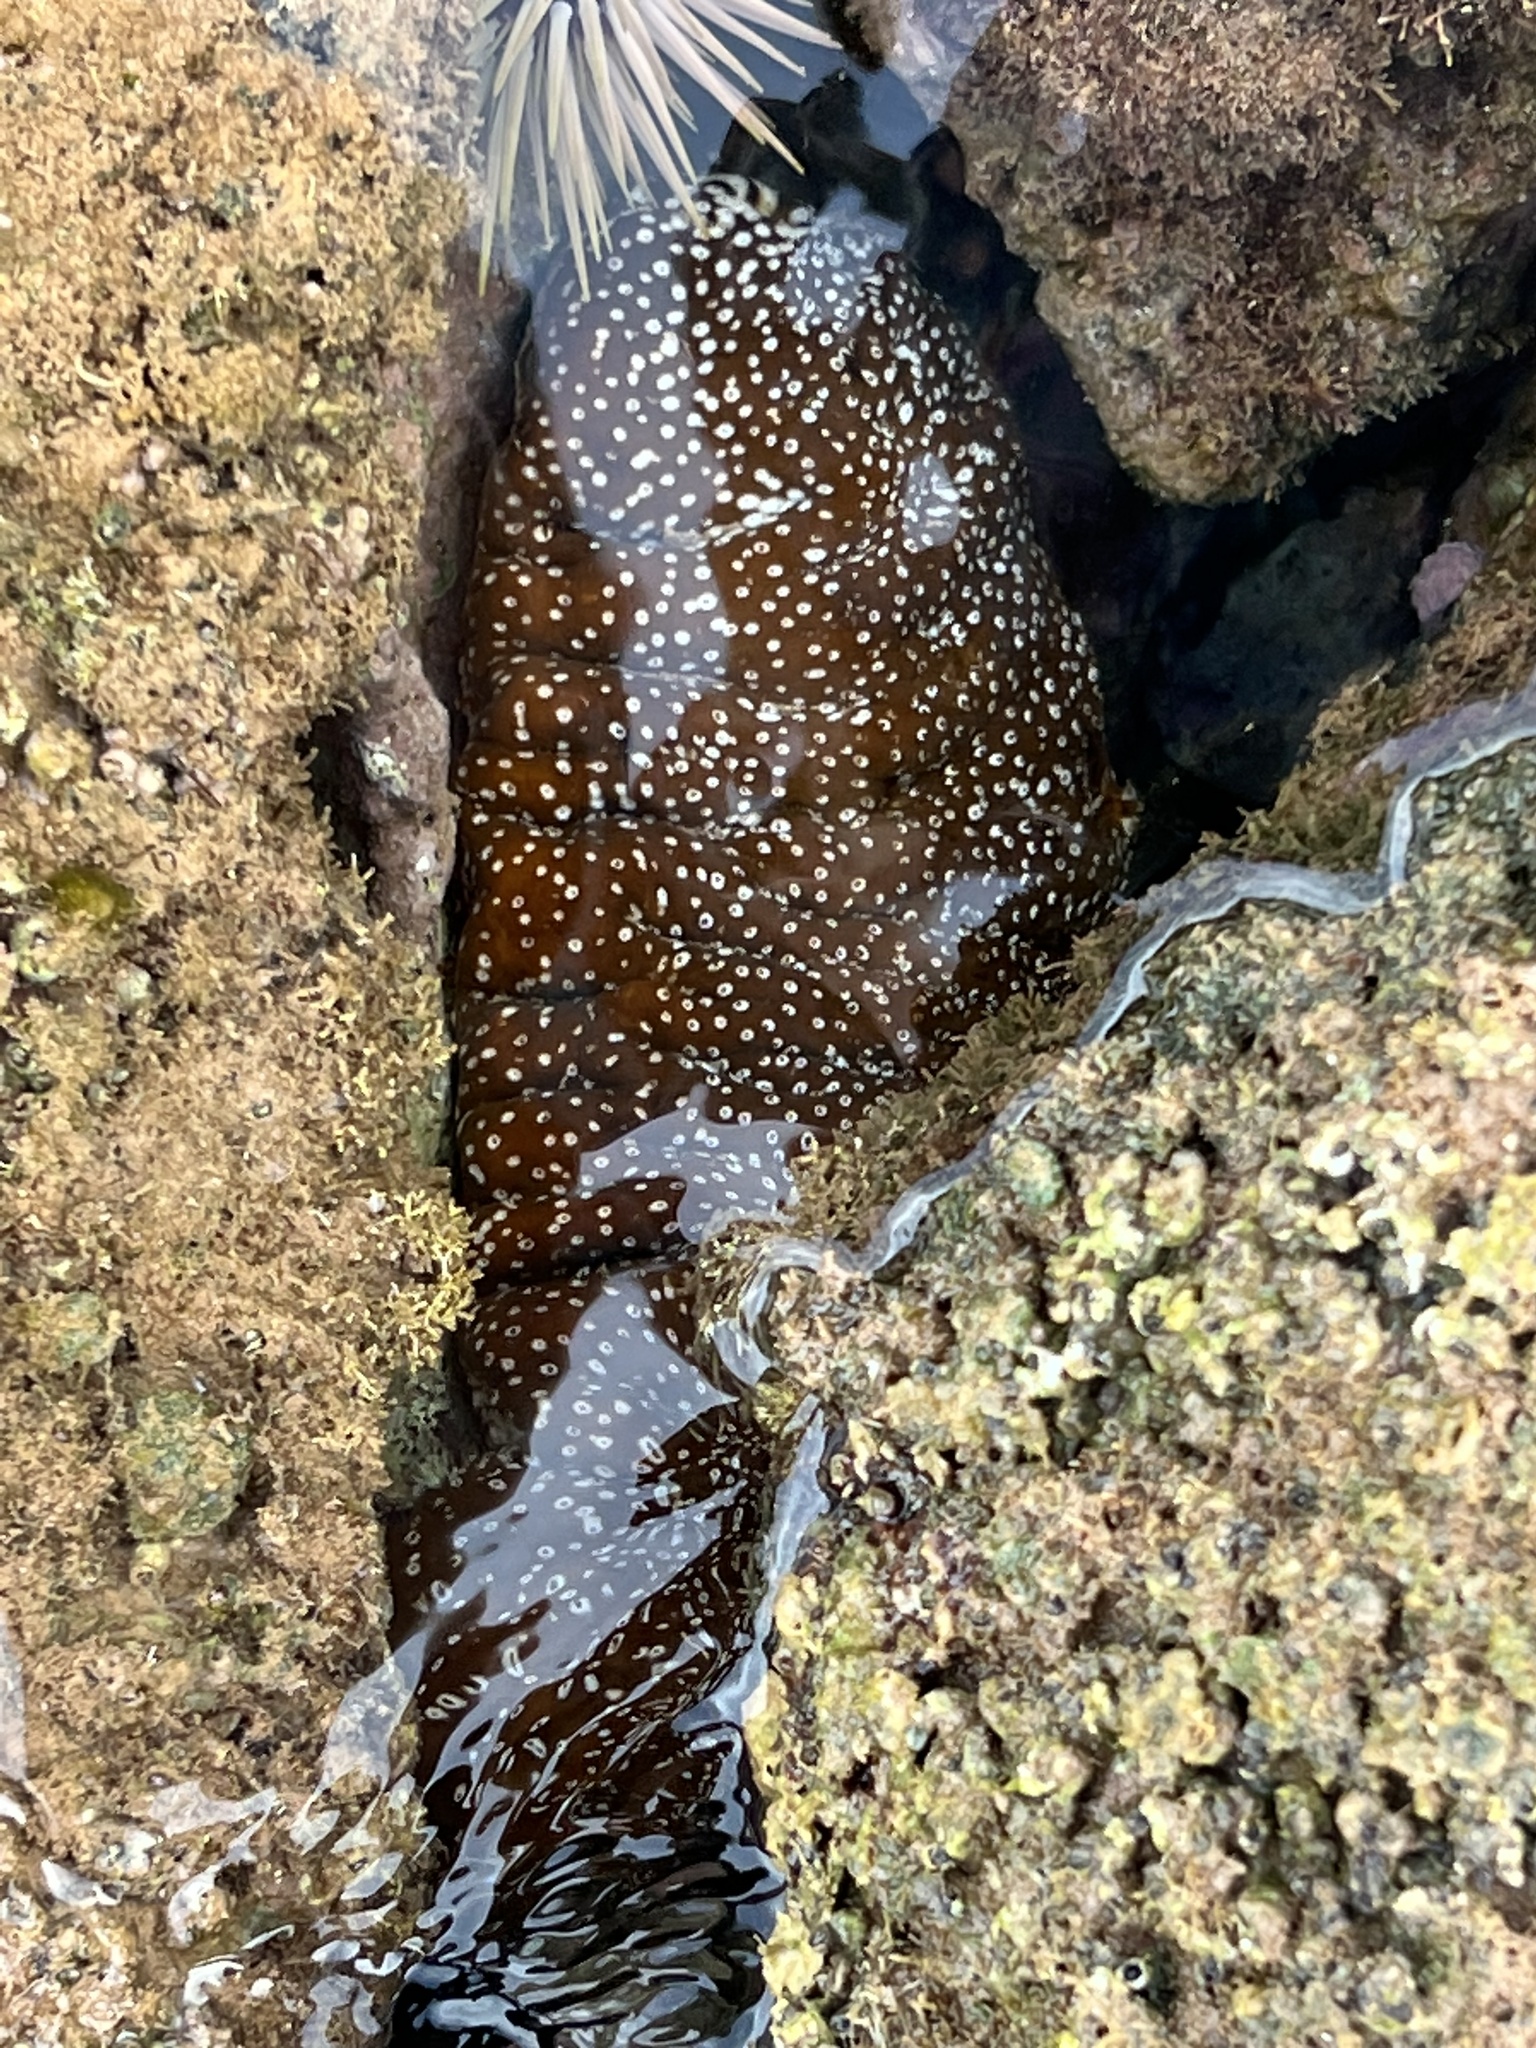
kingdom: Animalia
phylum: Echinodermata
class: Holothuroidea
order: Holothuriida
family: Holothuriidae
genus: Actinopyga
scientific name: Actinopyga varians
